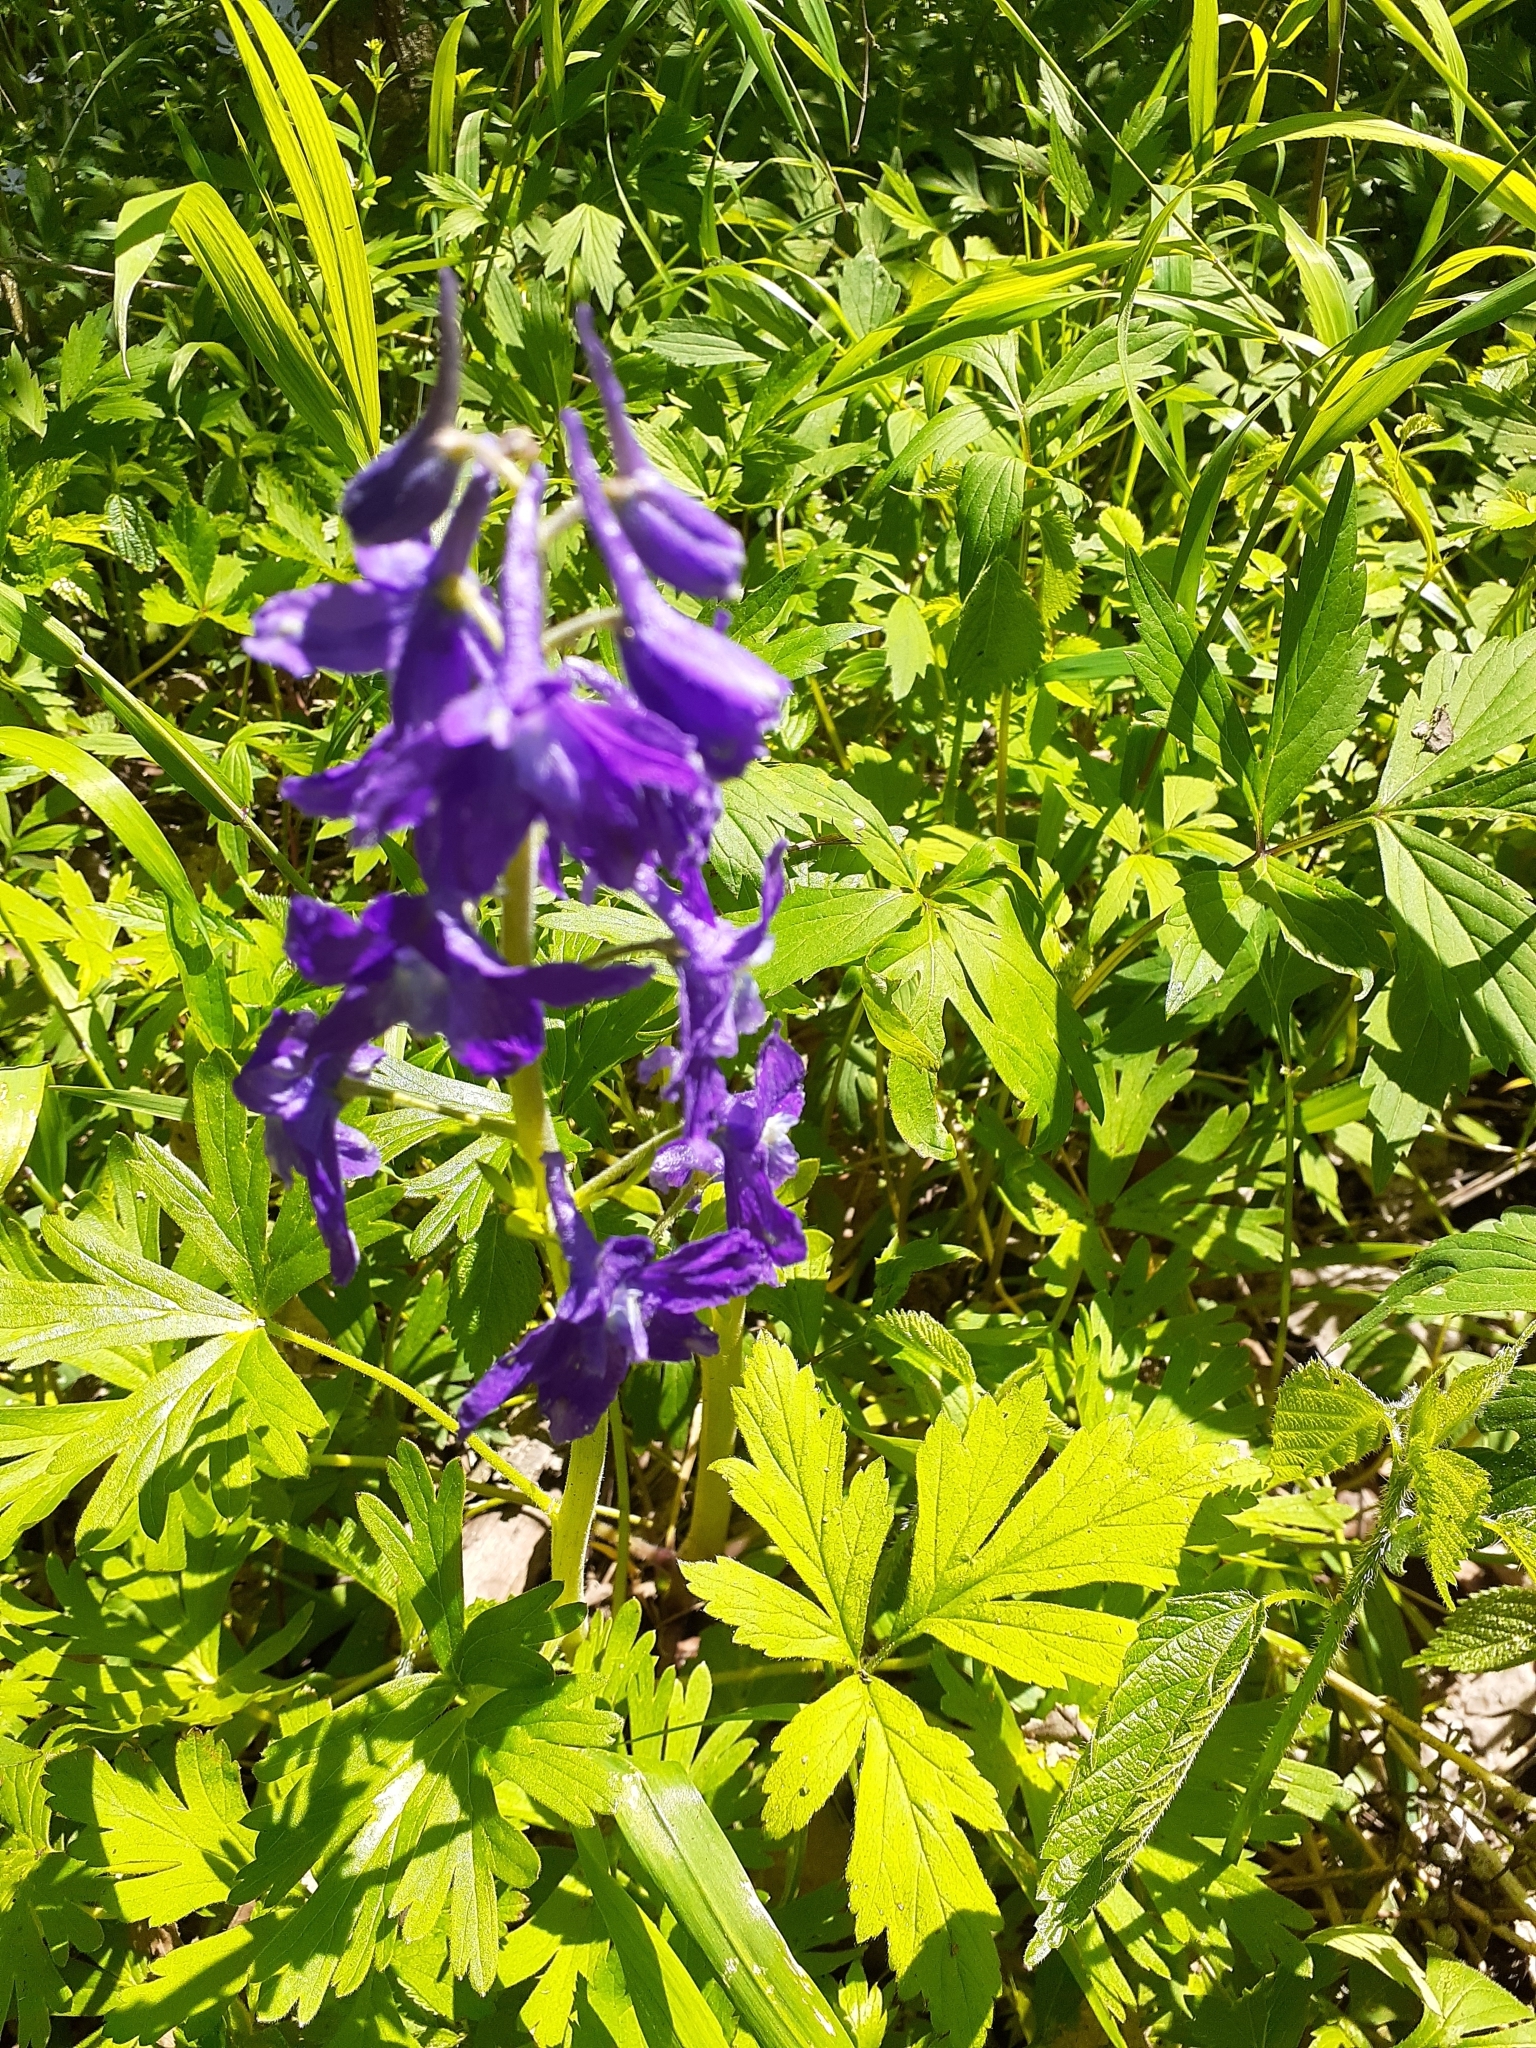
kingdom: Plantae
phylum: Tracheophyta
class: Magnoliopsida
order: Ranunculales
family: Ranunculaceae
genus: Delphinium
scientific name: Delphinium tricorne
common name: Dwarf larkspur
